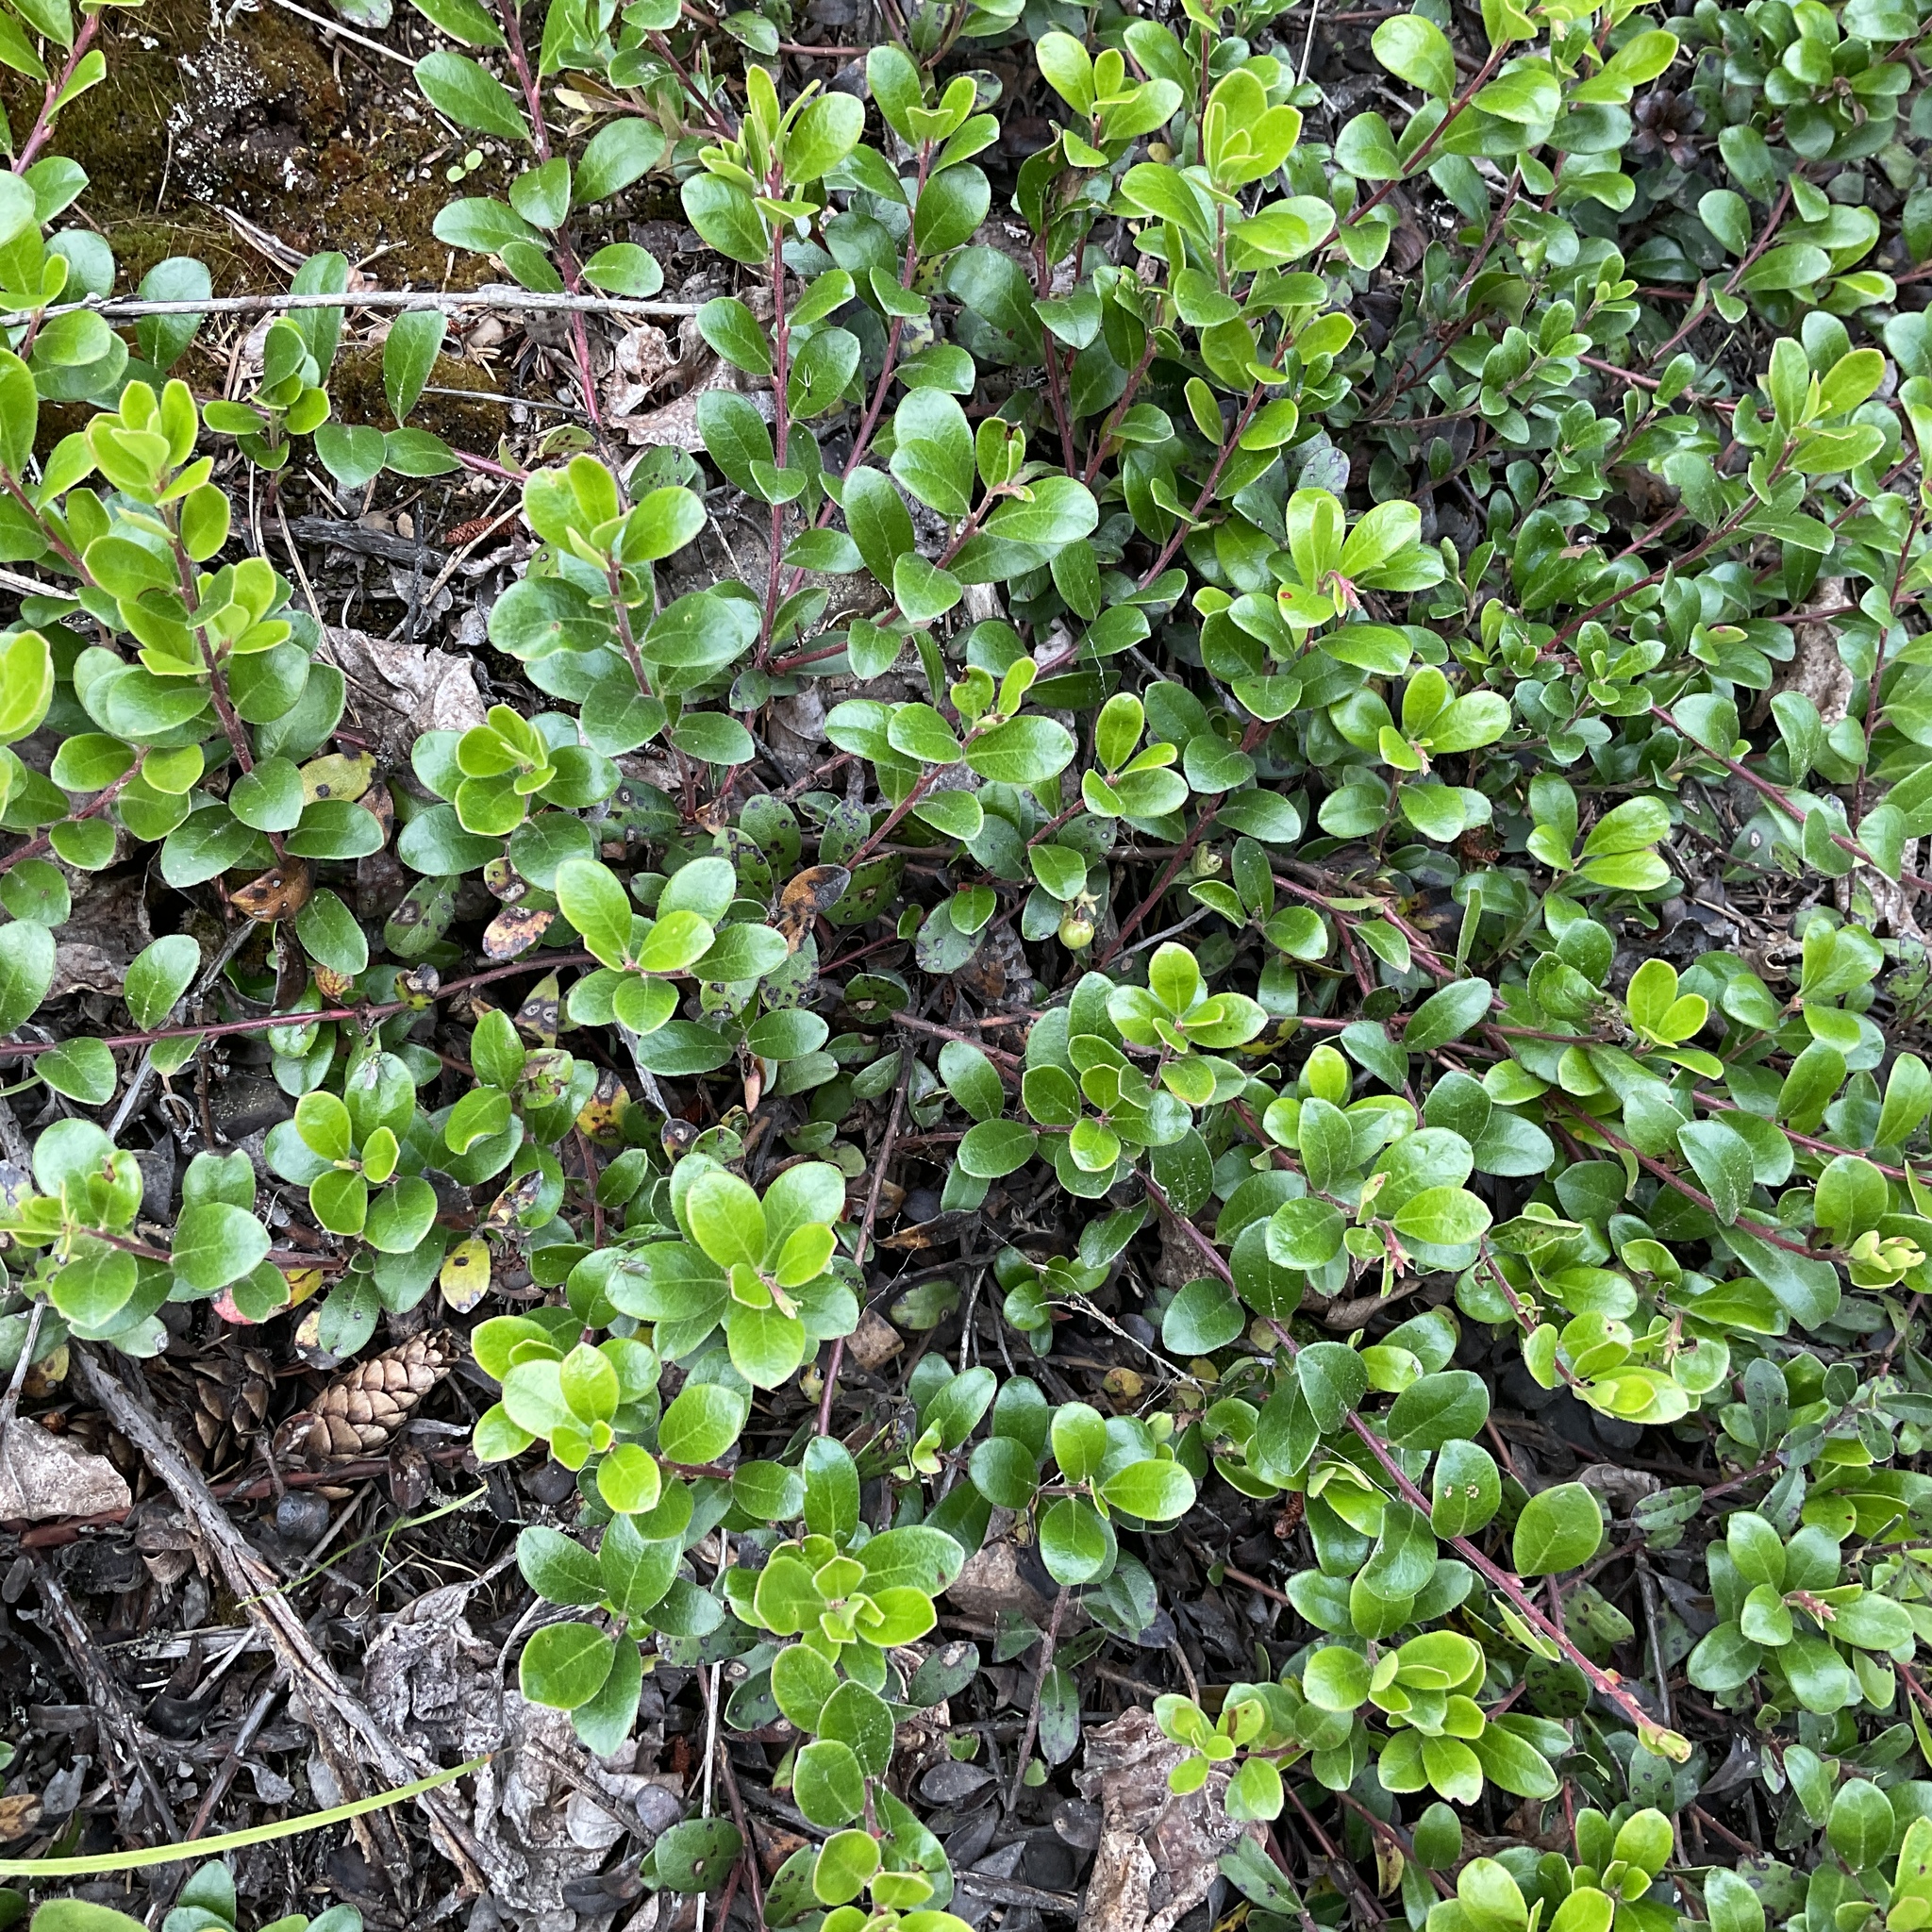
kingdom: Plantae
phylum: Tracheophyta
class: Magnoliopsida
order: Ericales
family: Ericaceae
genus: Arctostaphylos
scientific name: Arctostaphylos uva-ursi
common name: Bearberry
